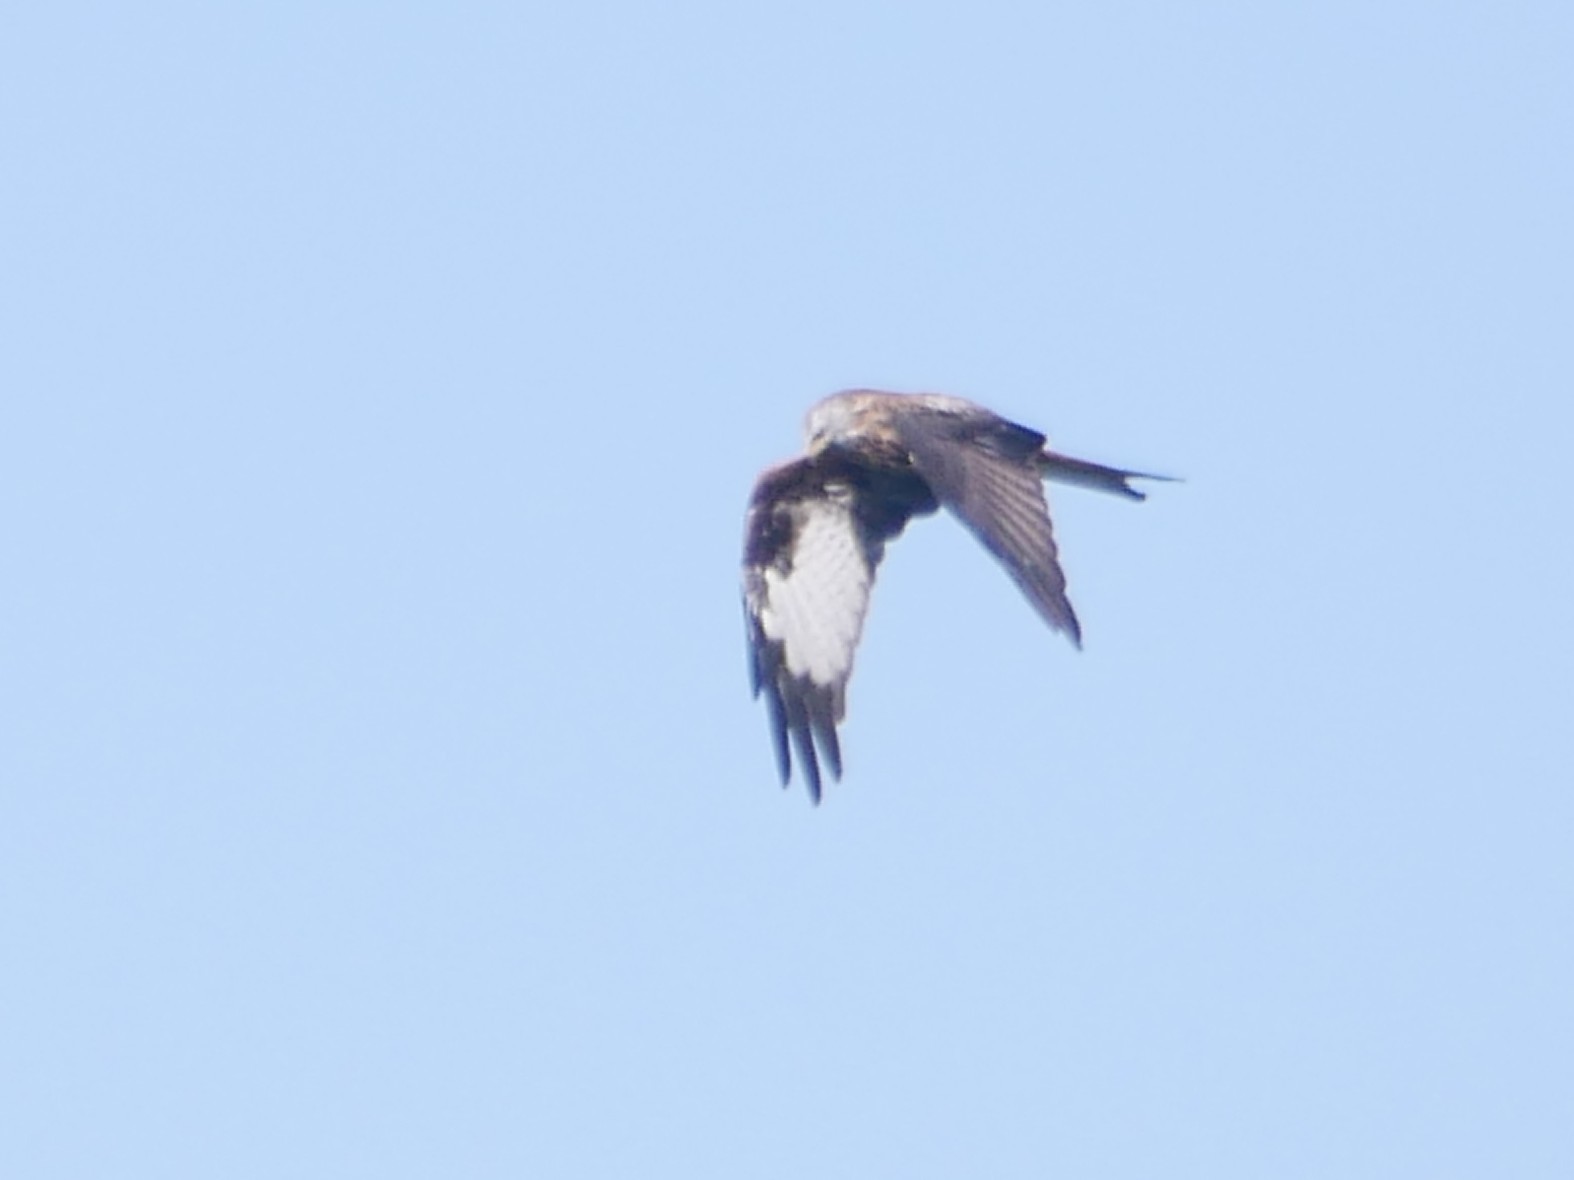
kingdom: Animalia
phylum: Chordata
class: Aves
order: Accipitriformes
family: Accipitridae
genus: Milvus
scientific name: Milvus milvus
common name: Red kite
